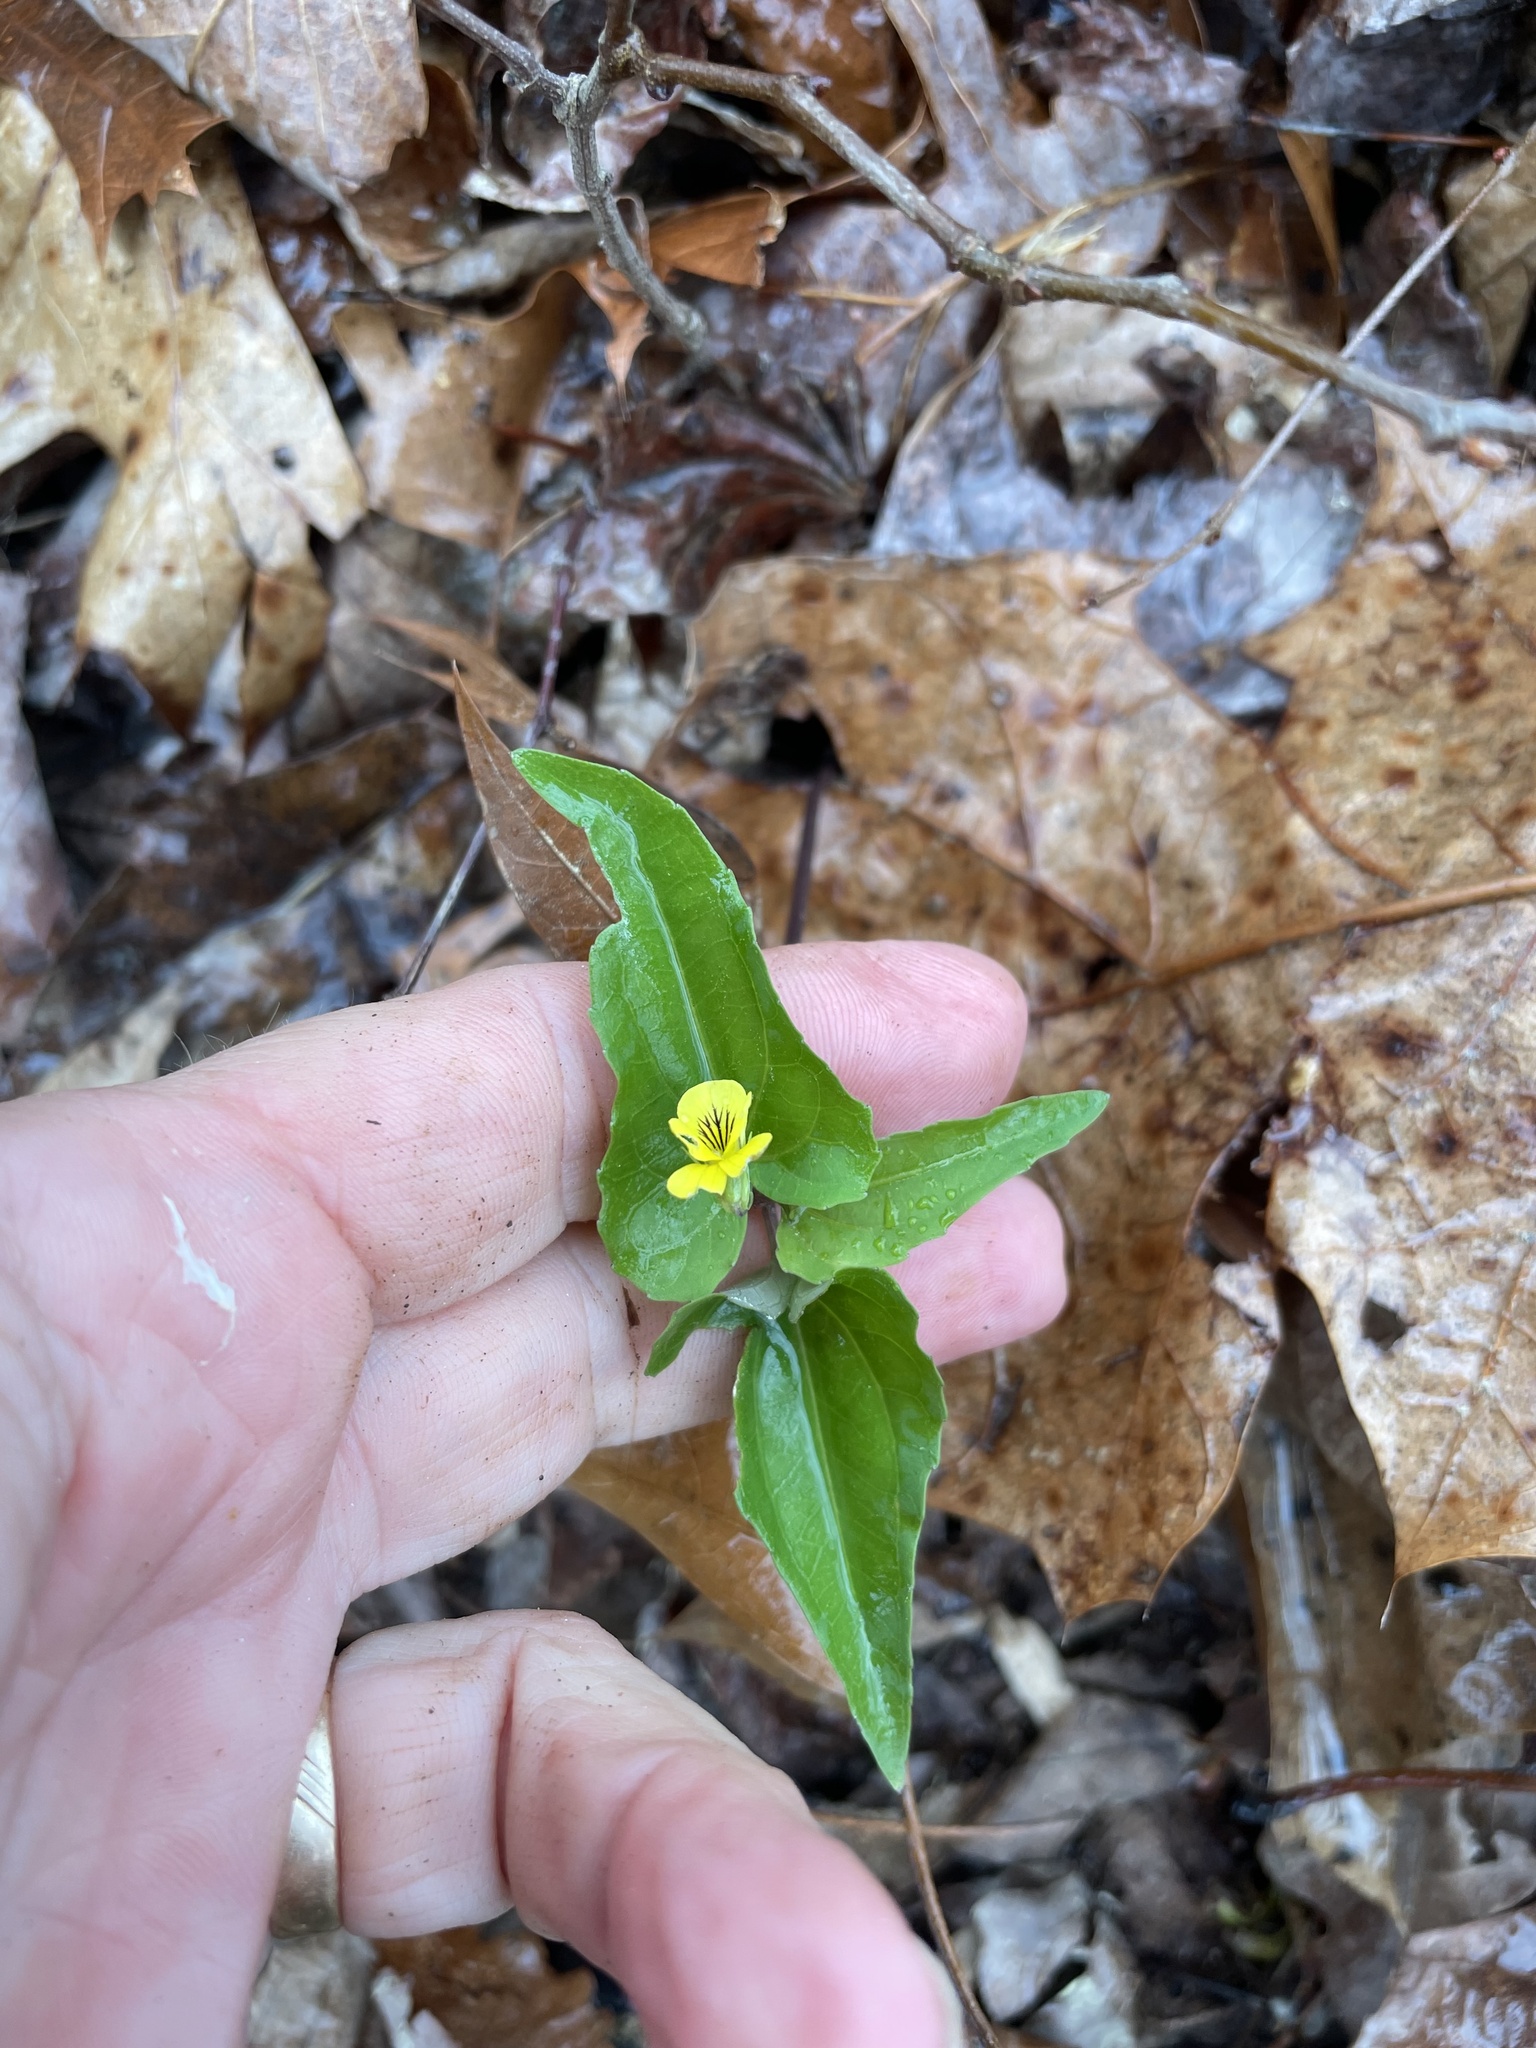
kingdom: Plantae
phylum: Tracheophyta
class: Magnoliopsida
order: Malpighiales
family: Violaceae
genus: Viola
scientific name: Viola hastata
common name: Spear-leaf violet
